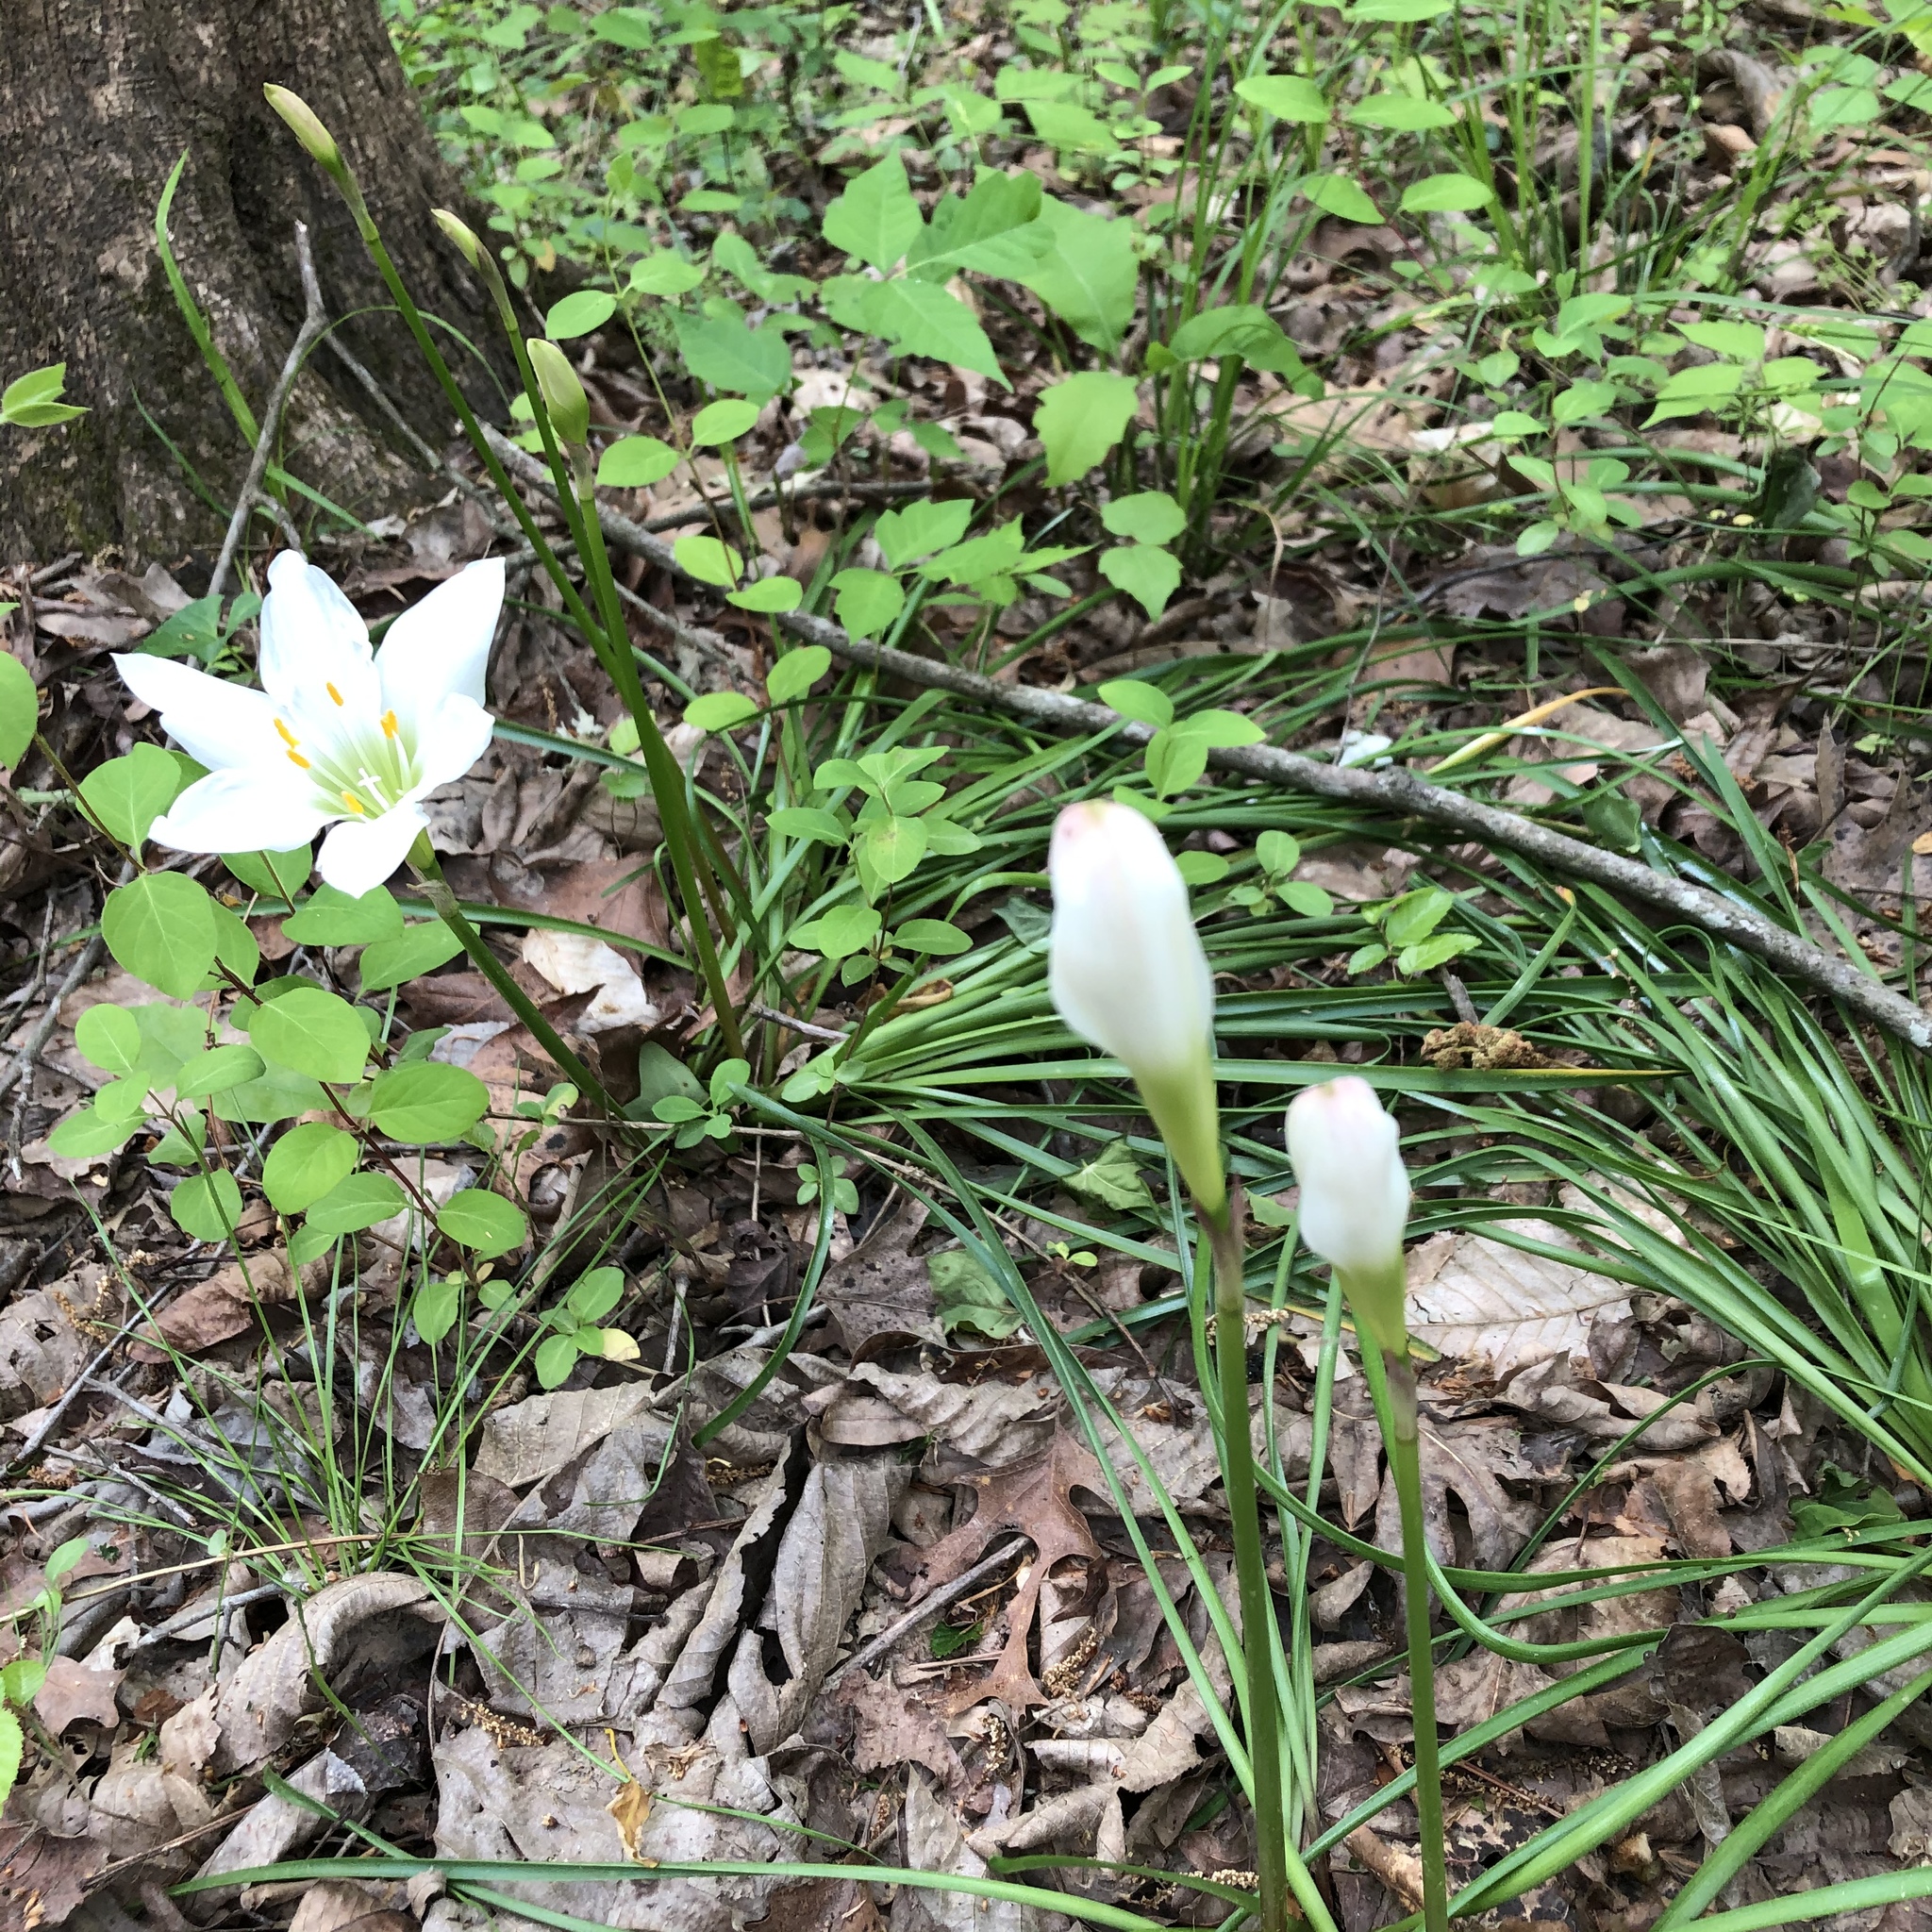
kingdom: Plantae
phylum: Tracheophyta
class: Liliopsida
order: Asparagales
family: Amaryllidaceae
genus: Zephyranthes
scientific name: Zephyranthes atamasco
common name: Atamasco lily
